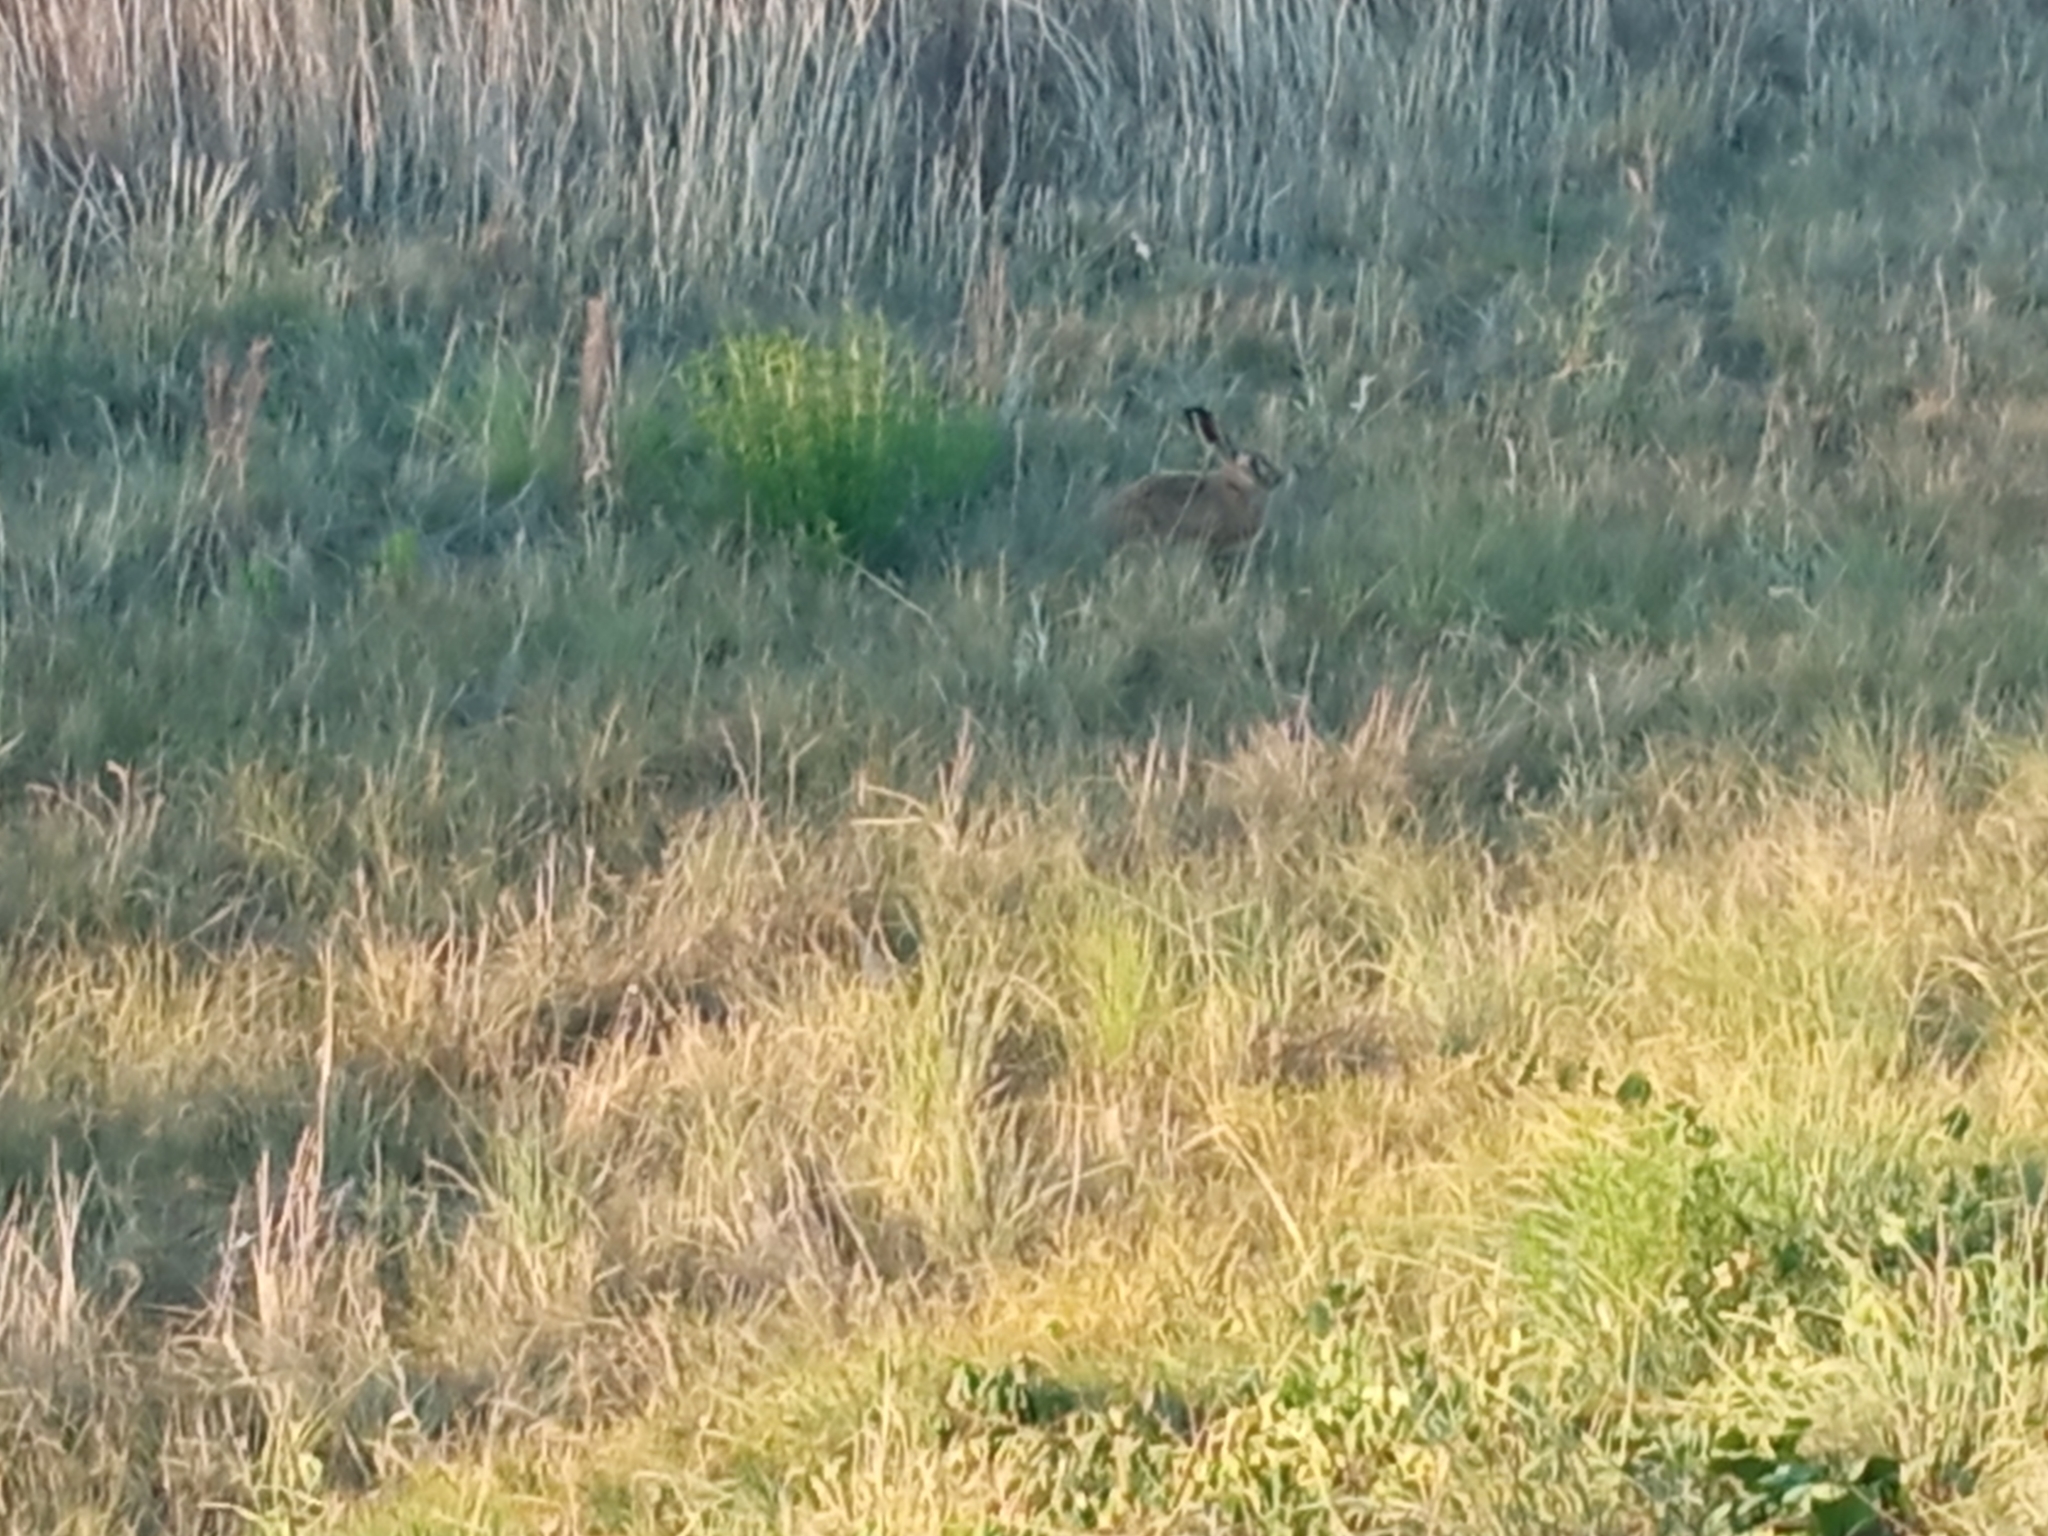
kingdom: Animalia
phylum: Chordata
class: Mammalia
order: Lagomorpha
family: Leporidae
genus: Lepus
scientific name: Lepus europaeus
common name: European hare
